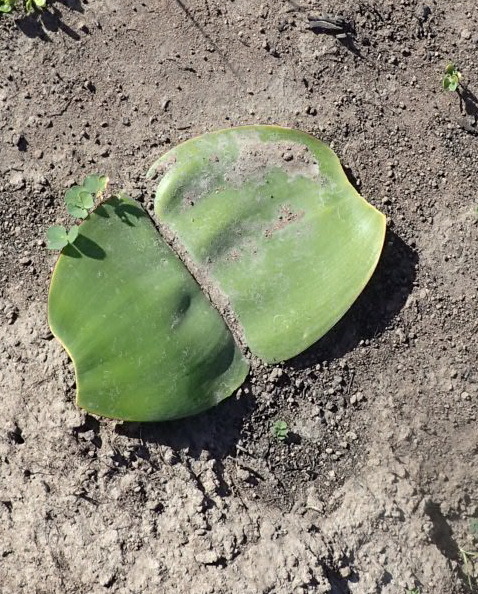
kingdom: Plantae
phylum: Tracheophyta
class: Liliopsida
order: Asparagales
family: Amaryllidaceae
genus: Haemanthus
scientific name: Haemanthus sanguineus
